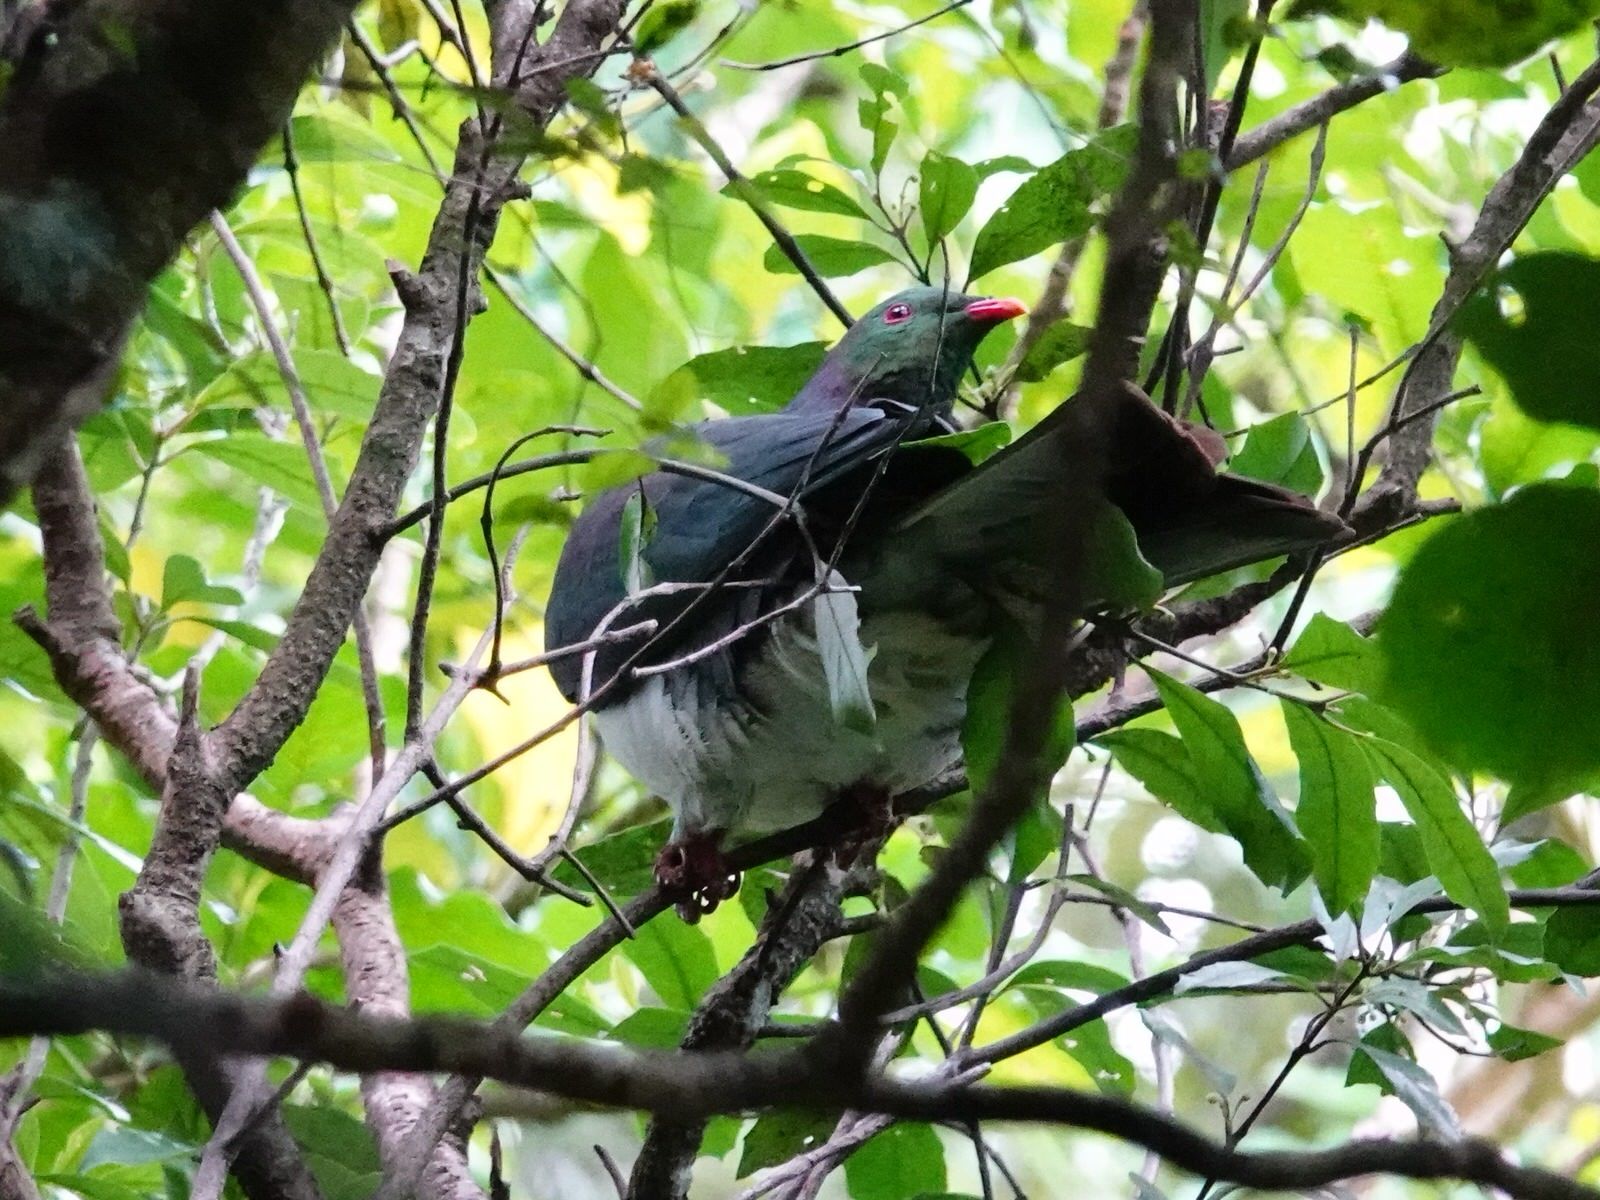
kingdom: Animalia
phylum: Chordata
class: Aves
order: Columbiformes
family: Columbidae
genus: Hemiphaga
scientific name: Hemiphaga novaeseelandiae
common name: New zealand pigeon
